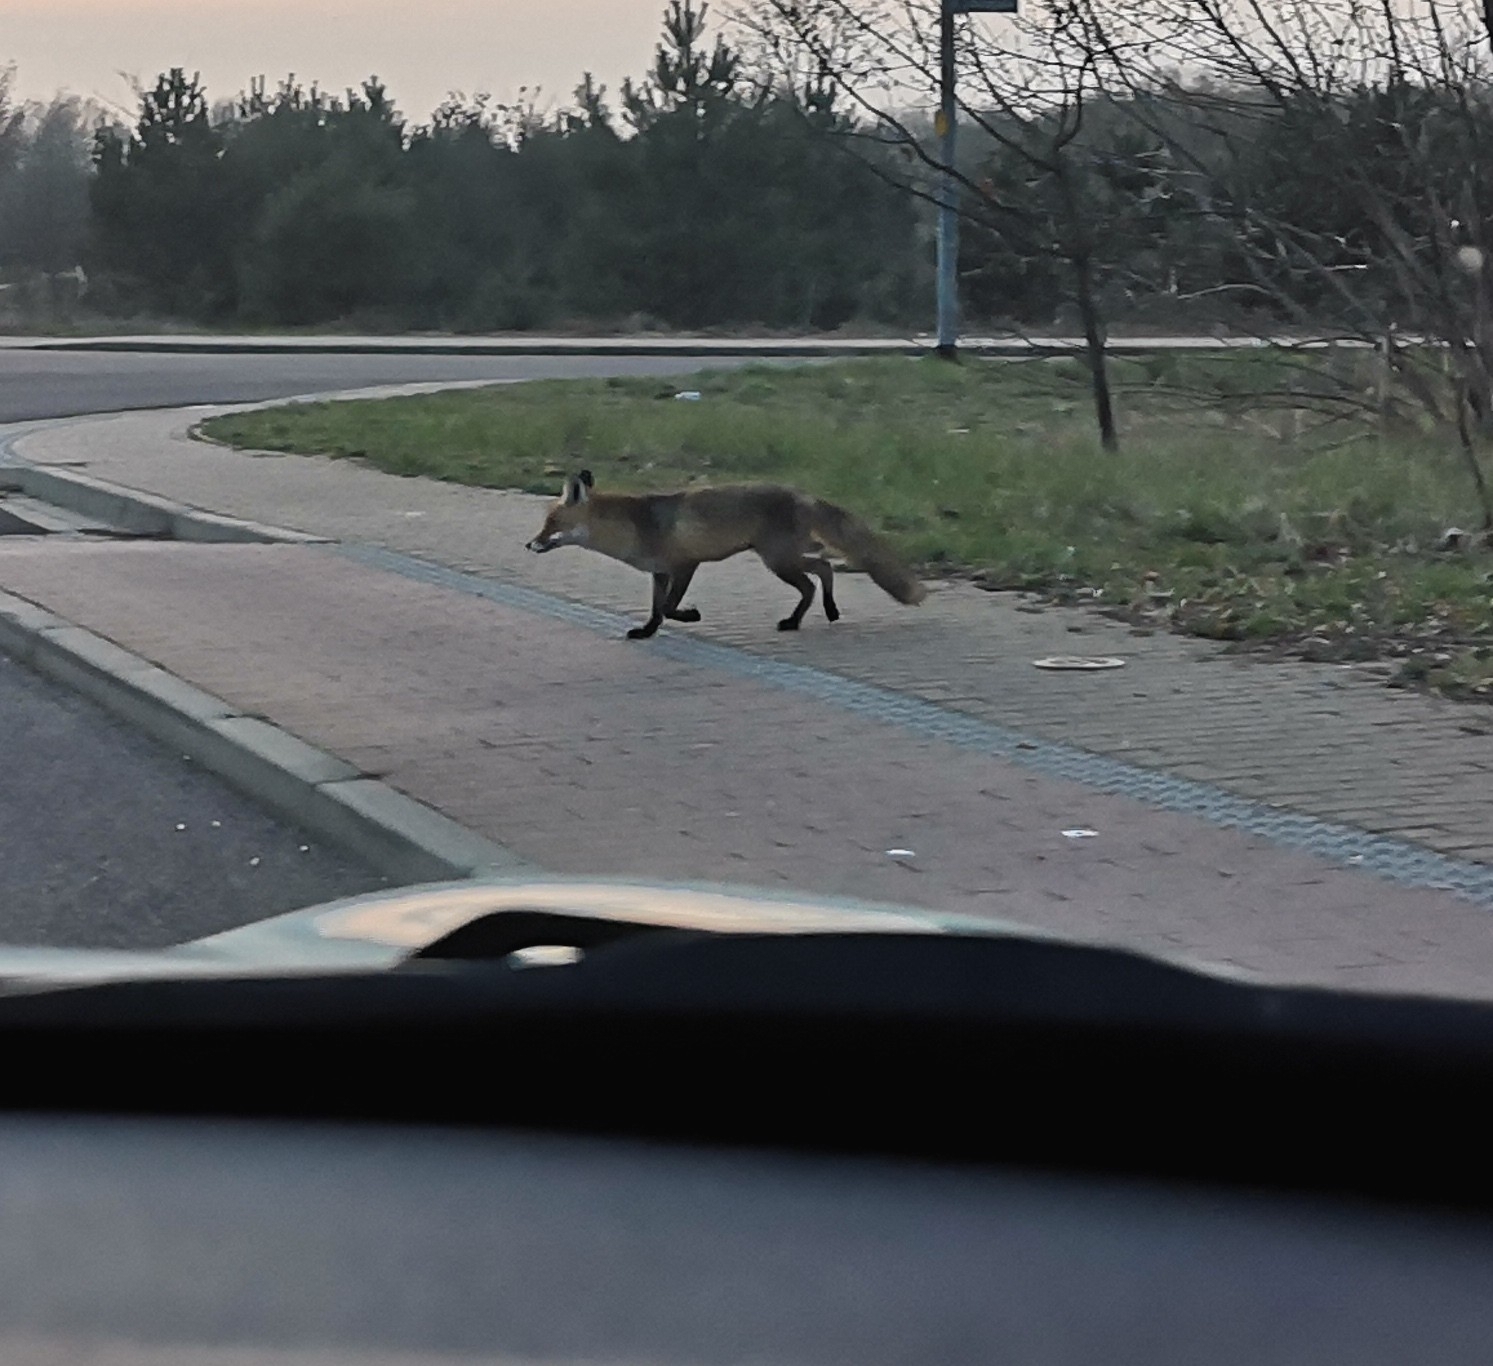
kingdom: Animalia
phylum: Chordata
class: Mammalia
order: Carnivora
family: Canidae
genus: Vulpes
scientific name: Vulpes vulpes
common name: Red fox
